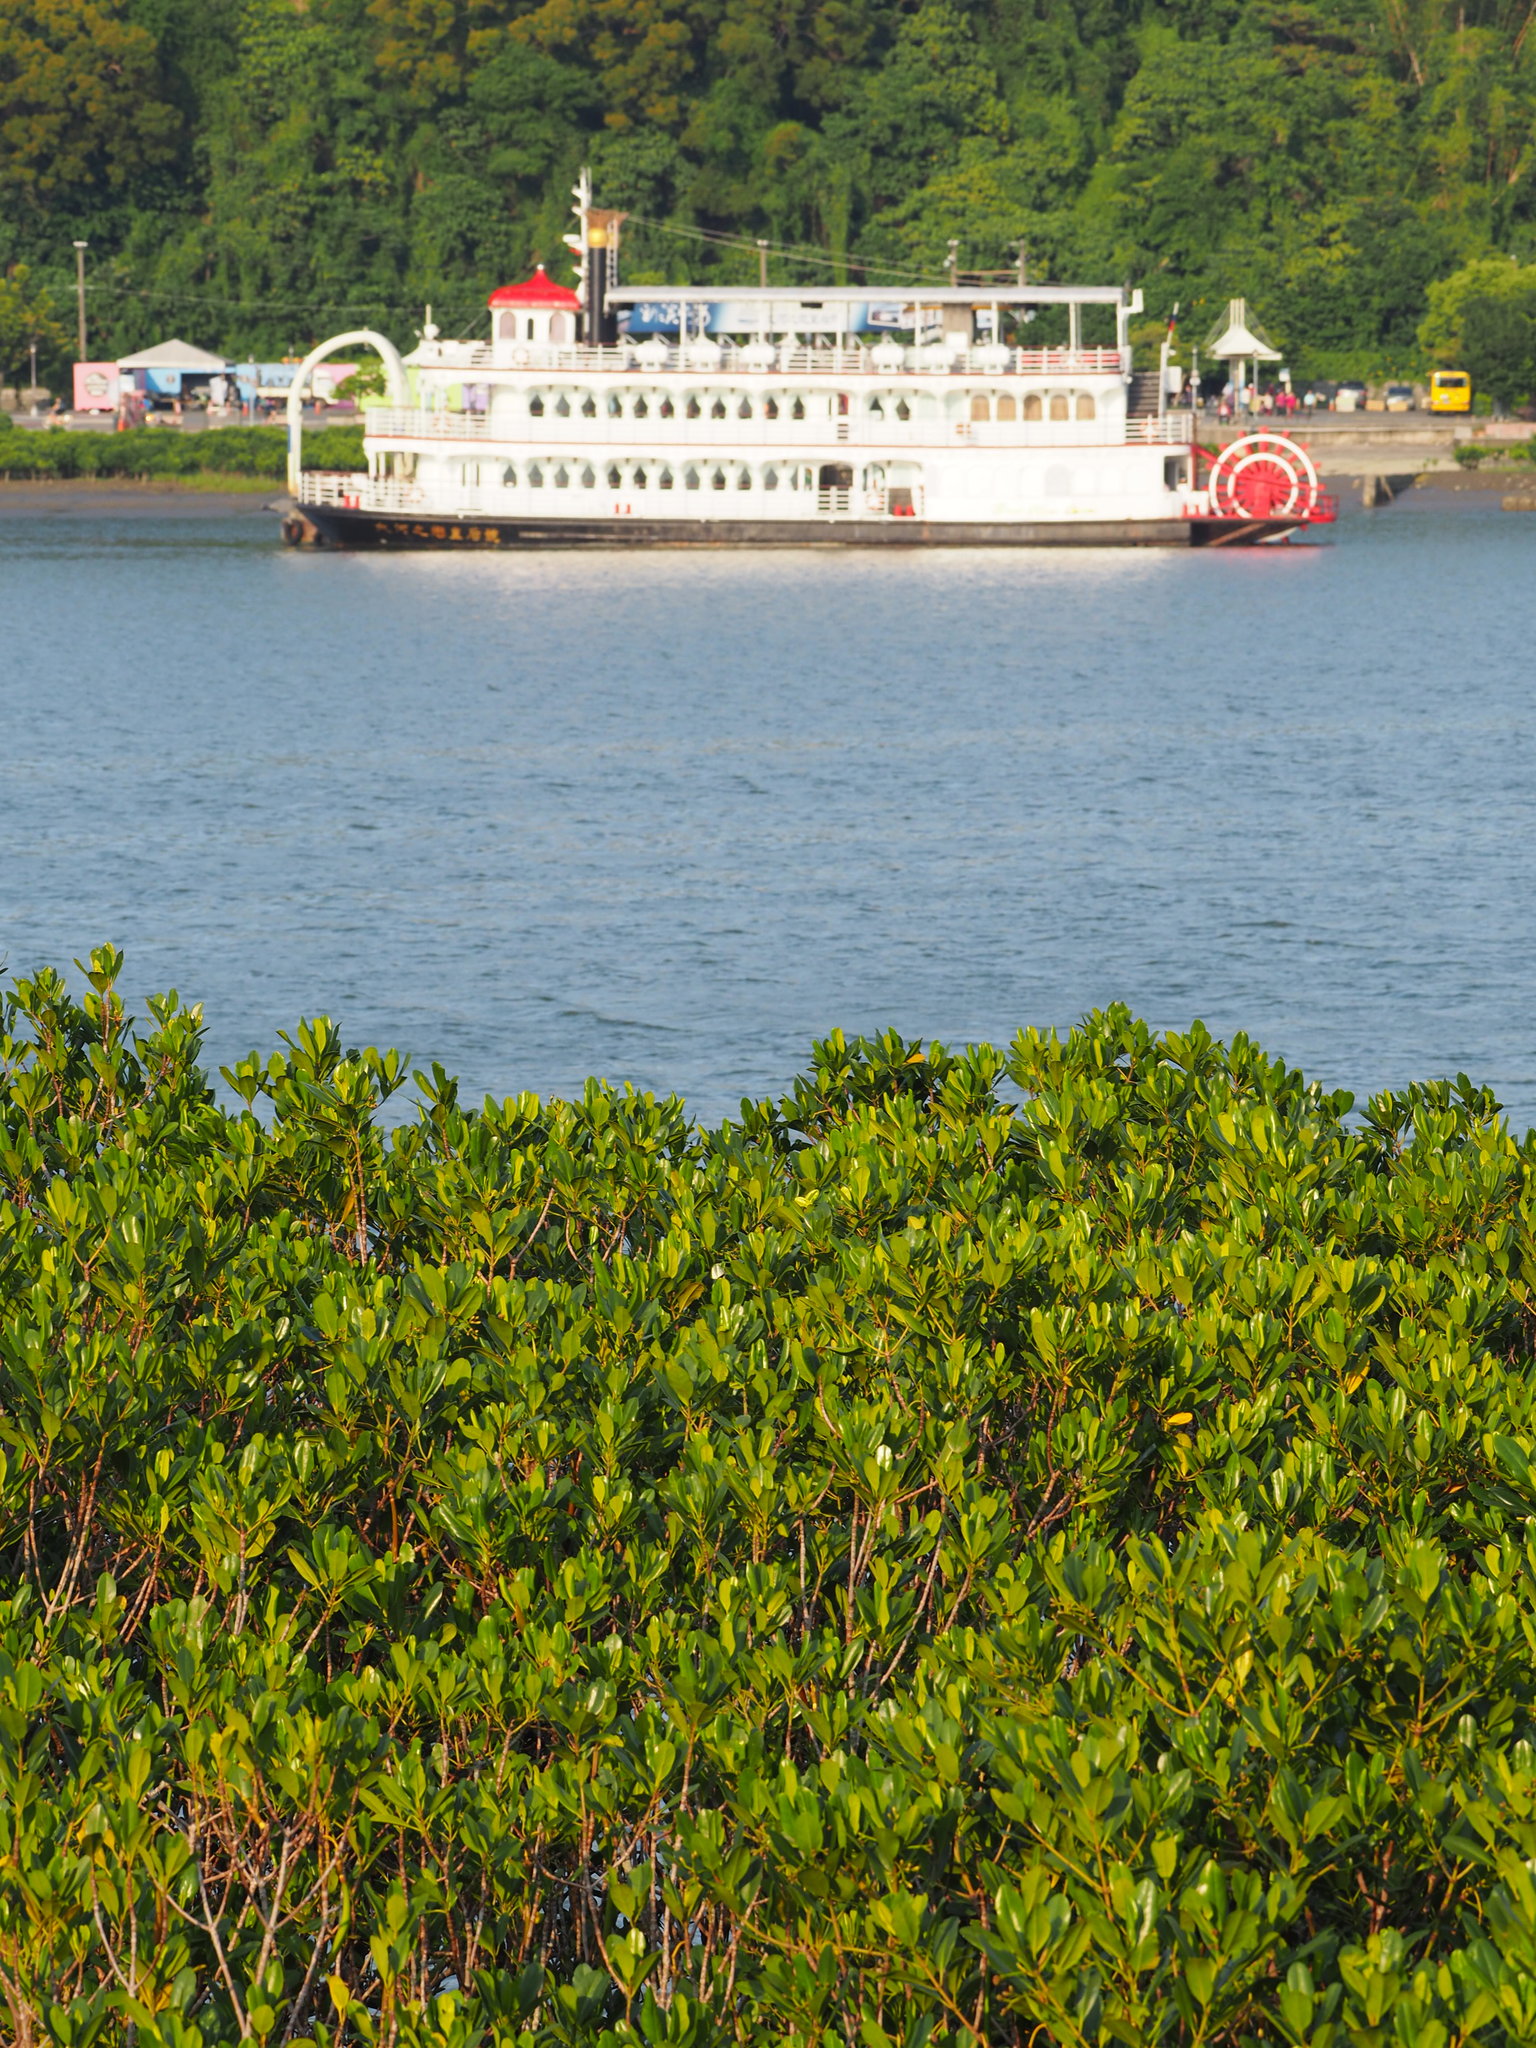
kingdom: Plantae
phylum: Tracheophyta
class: Magnoliopsida
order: Malpighiales
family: Rhizophoraceae
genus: Kandelia
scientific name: Kandelia obovata
